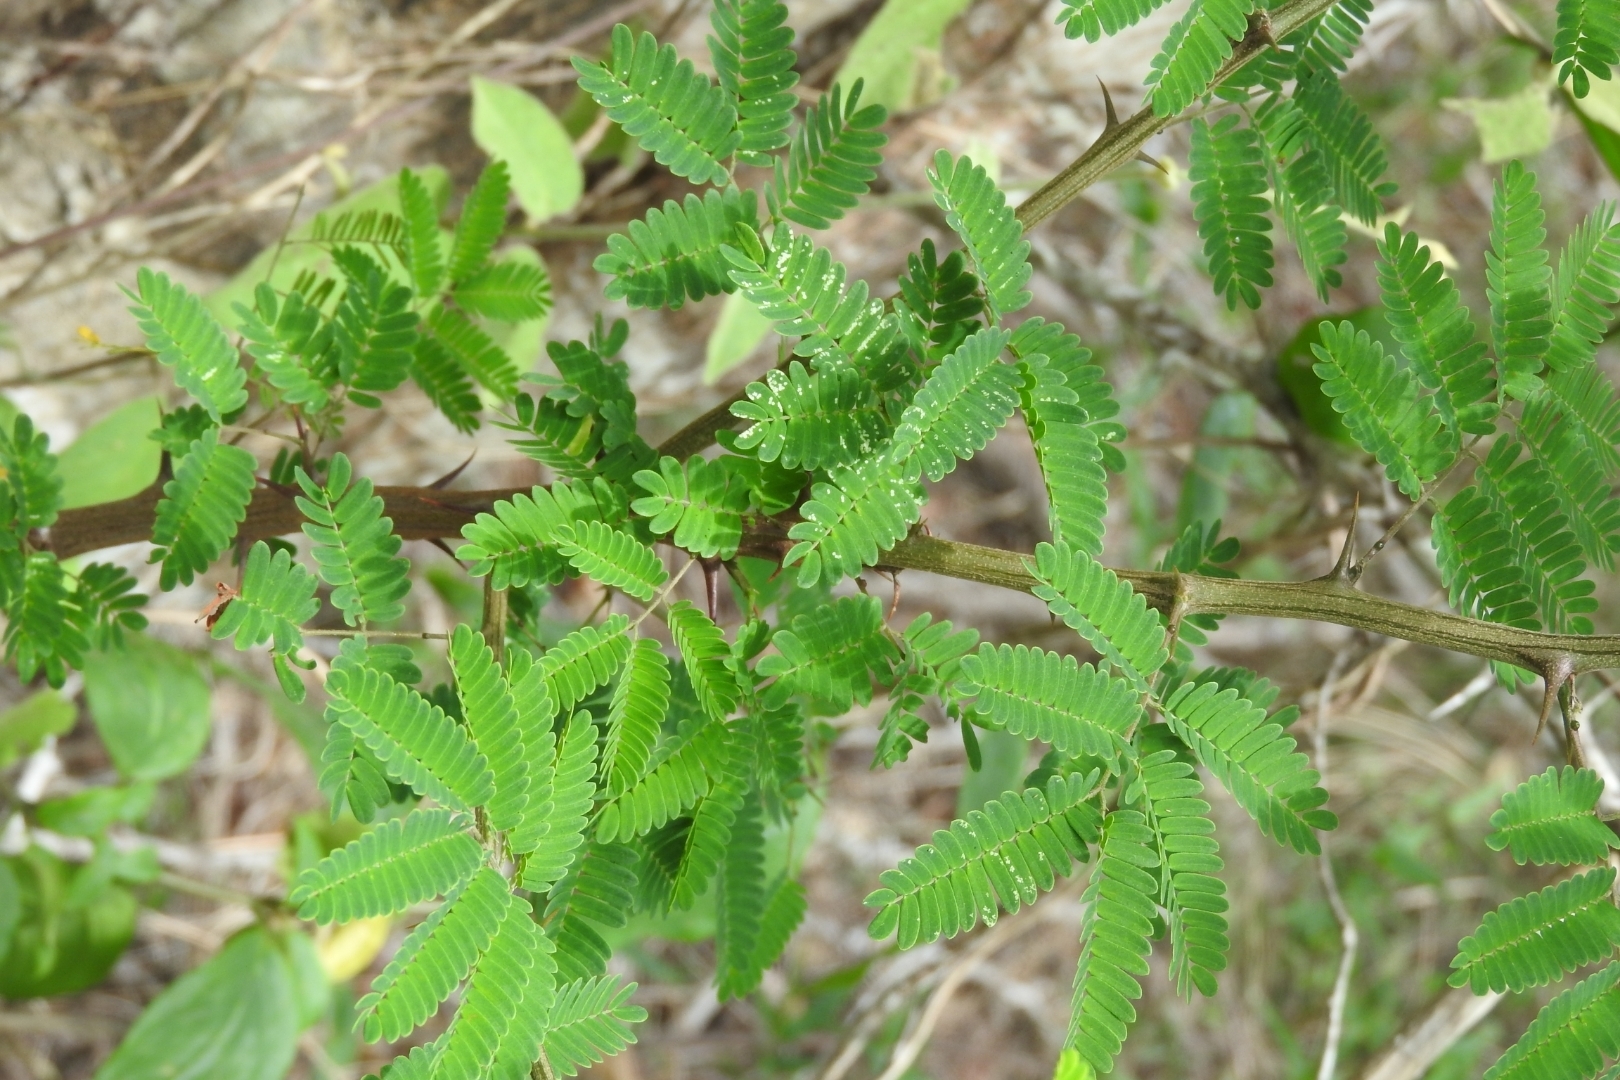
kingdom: Plantae
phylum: Tracheophyta
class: Magnoliopsida
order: Fabales
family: Fabaceae
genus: Havardia
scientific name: Havardia albicans
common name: Huisache
